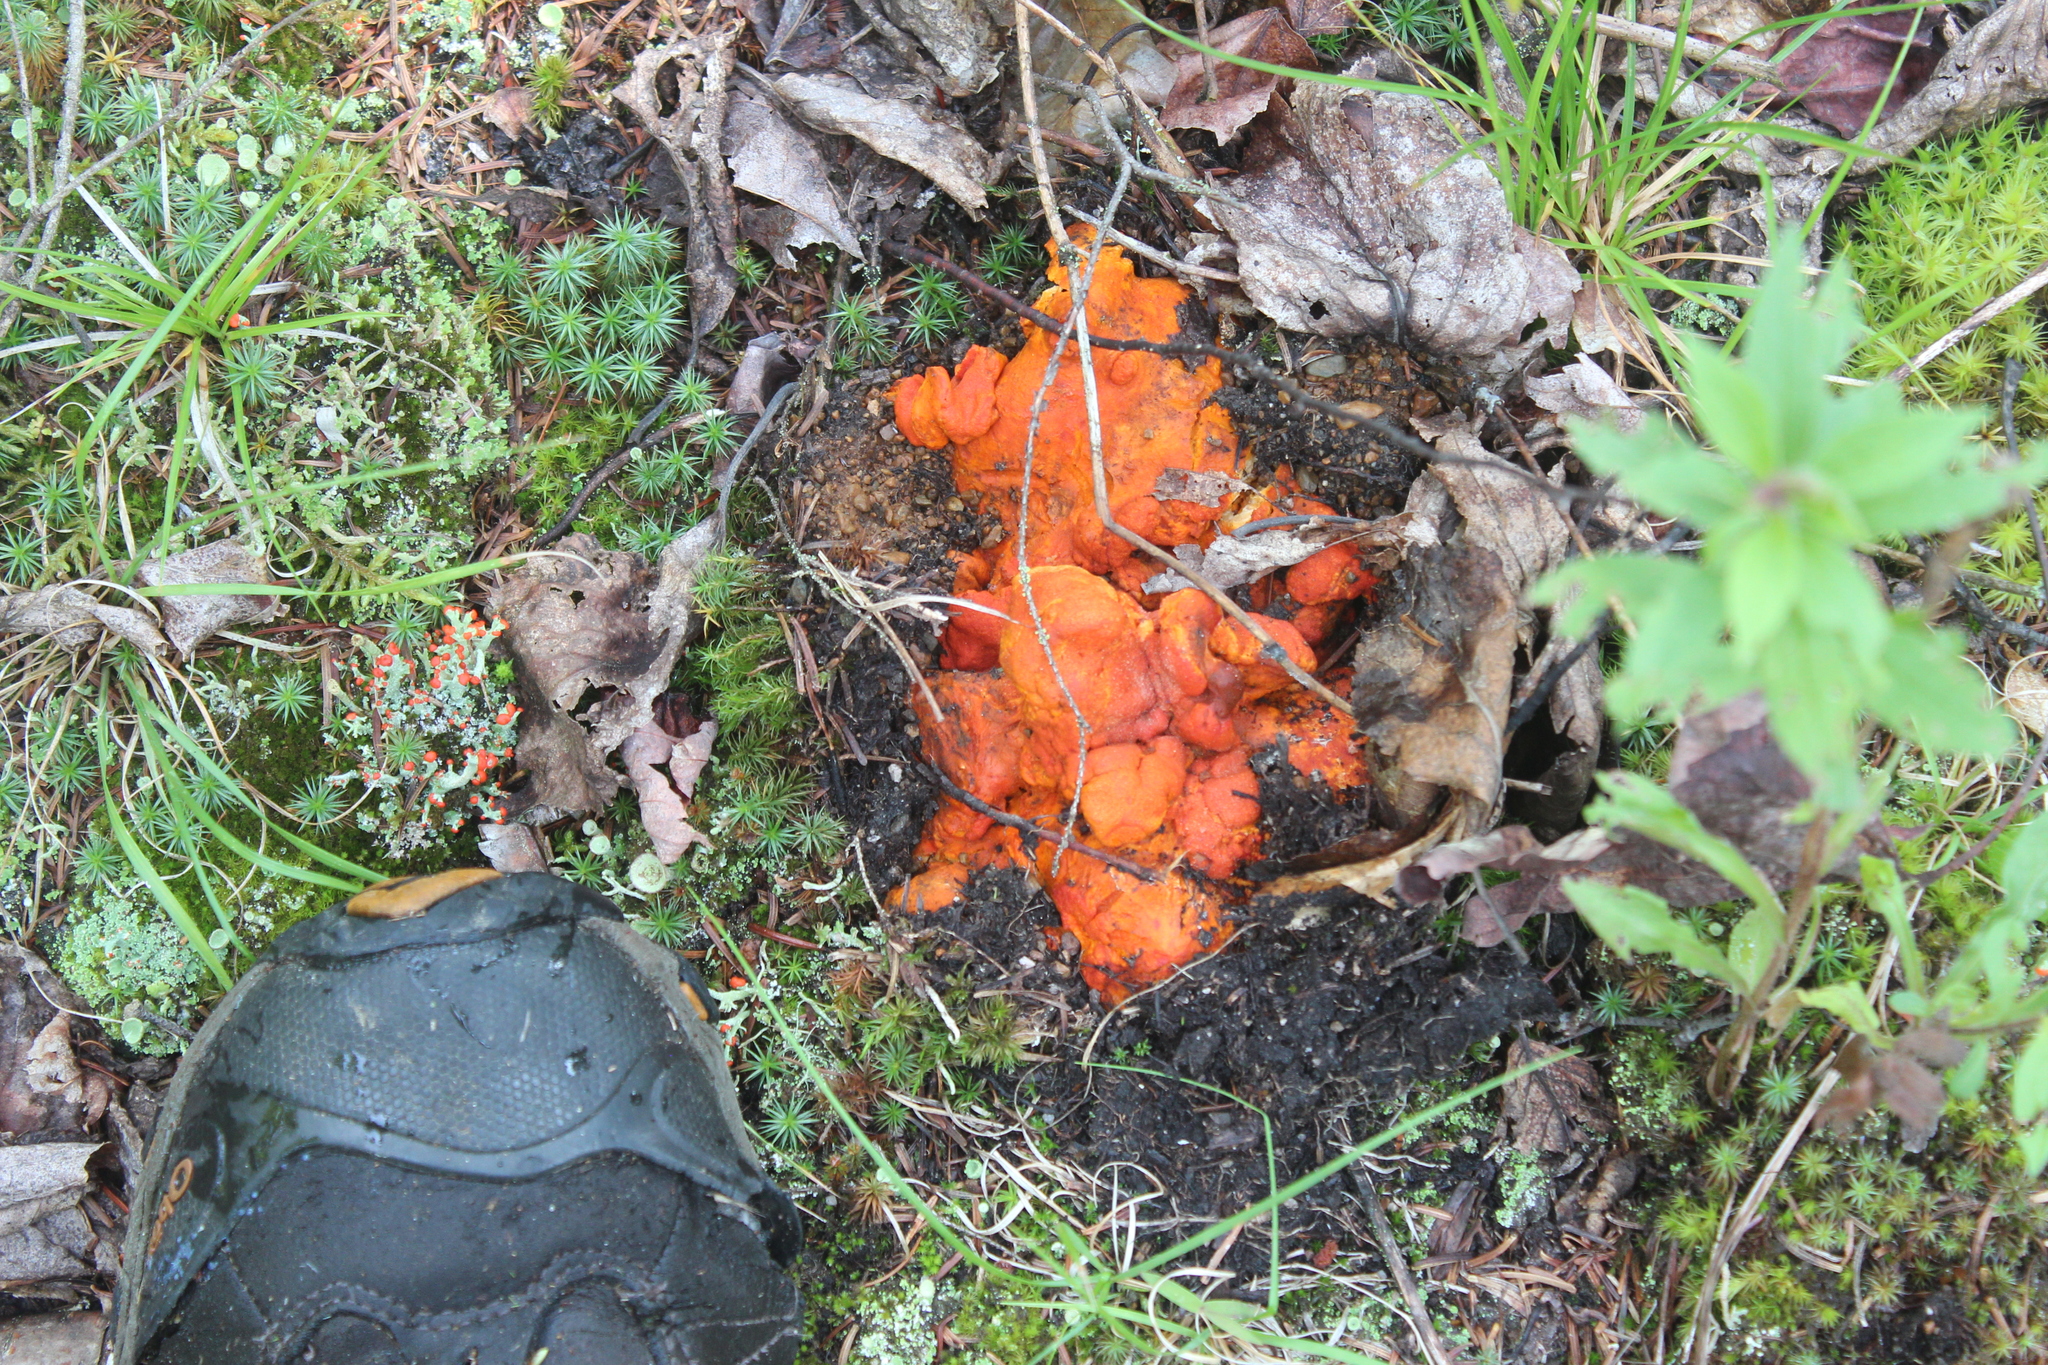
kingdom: Fungi
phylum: Ascomycota
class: Sordariomycetes
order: Hypocreales
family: Hypocreaceae
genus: Hypomyces
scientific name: Hypomyces lactifluorum
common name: Lobster mushroom
